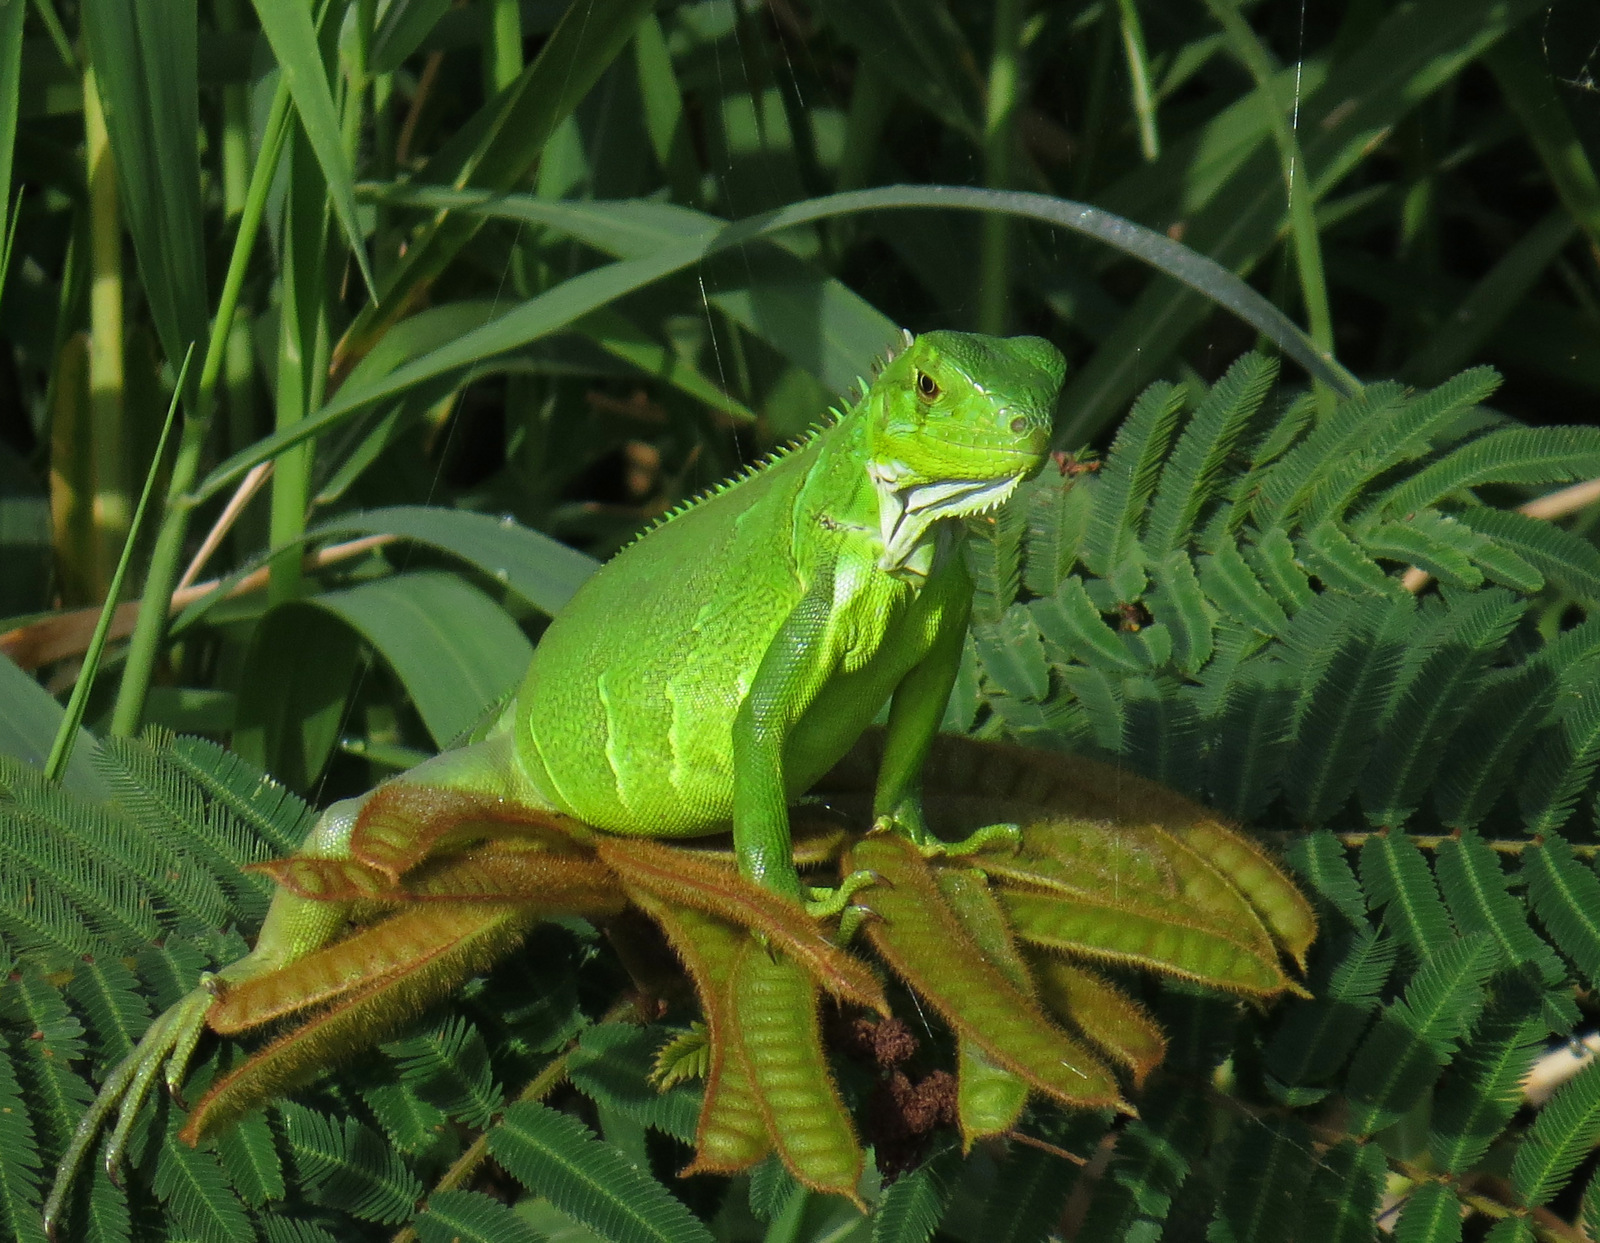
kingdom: Animalia
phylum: Chordata
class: Squamata
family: Iguanidae
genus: Iguana
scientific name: Iguana iguana
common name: Green iguana
